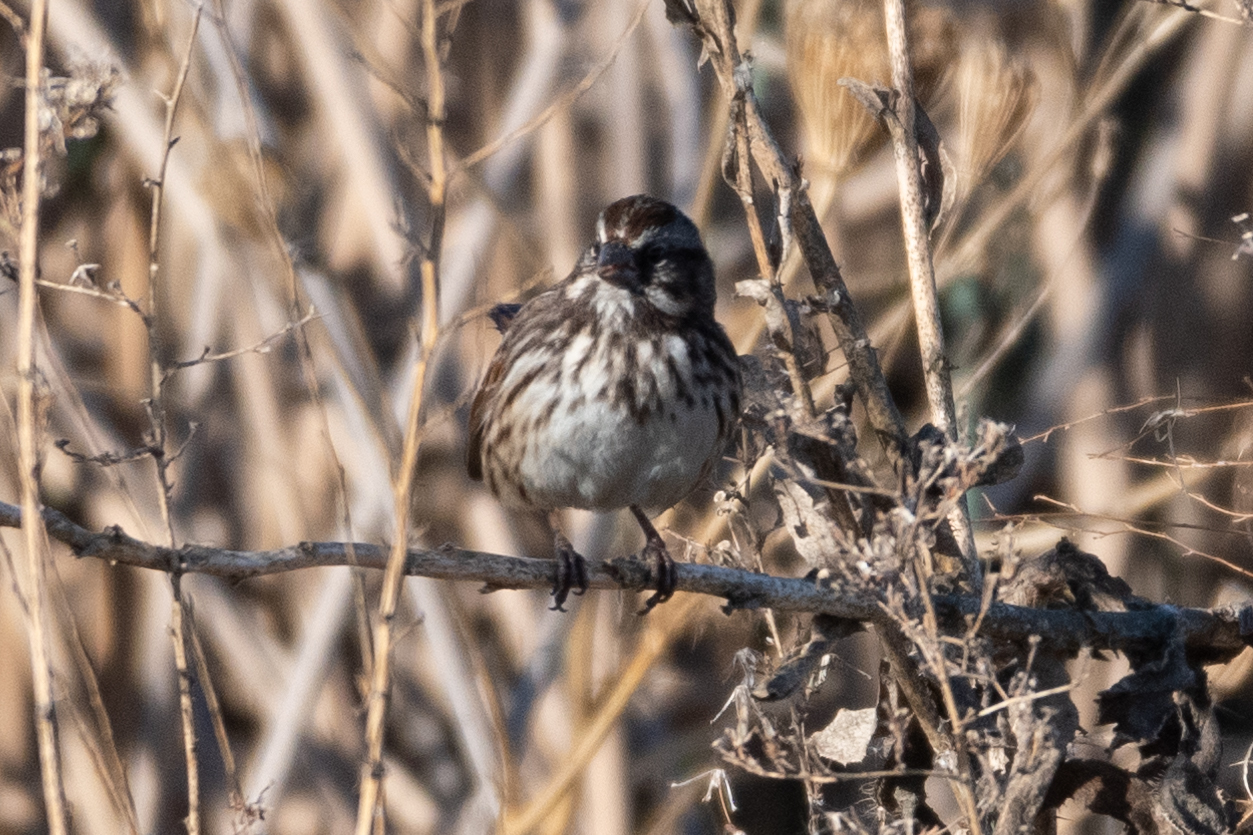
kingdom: Animalia
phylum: Chordata
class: Aves
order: Passeriformes
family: Passerellidae
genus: Melospiza
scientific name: Melospiza melodia
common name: Song sparrow
